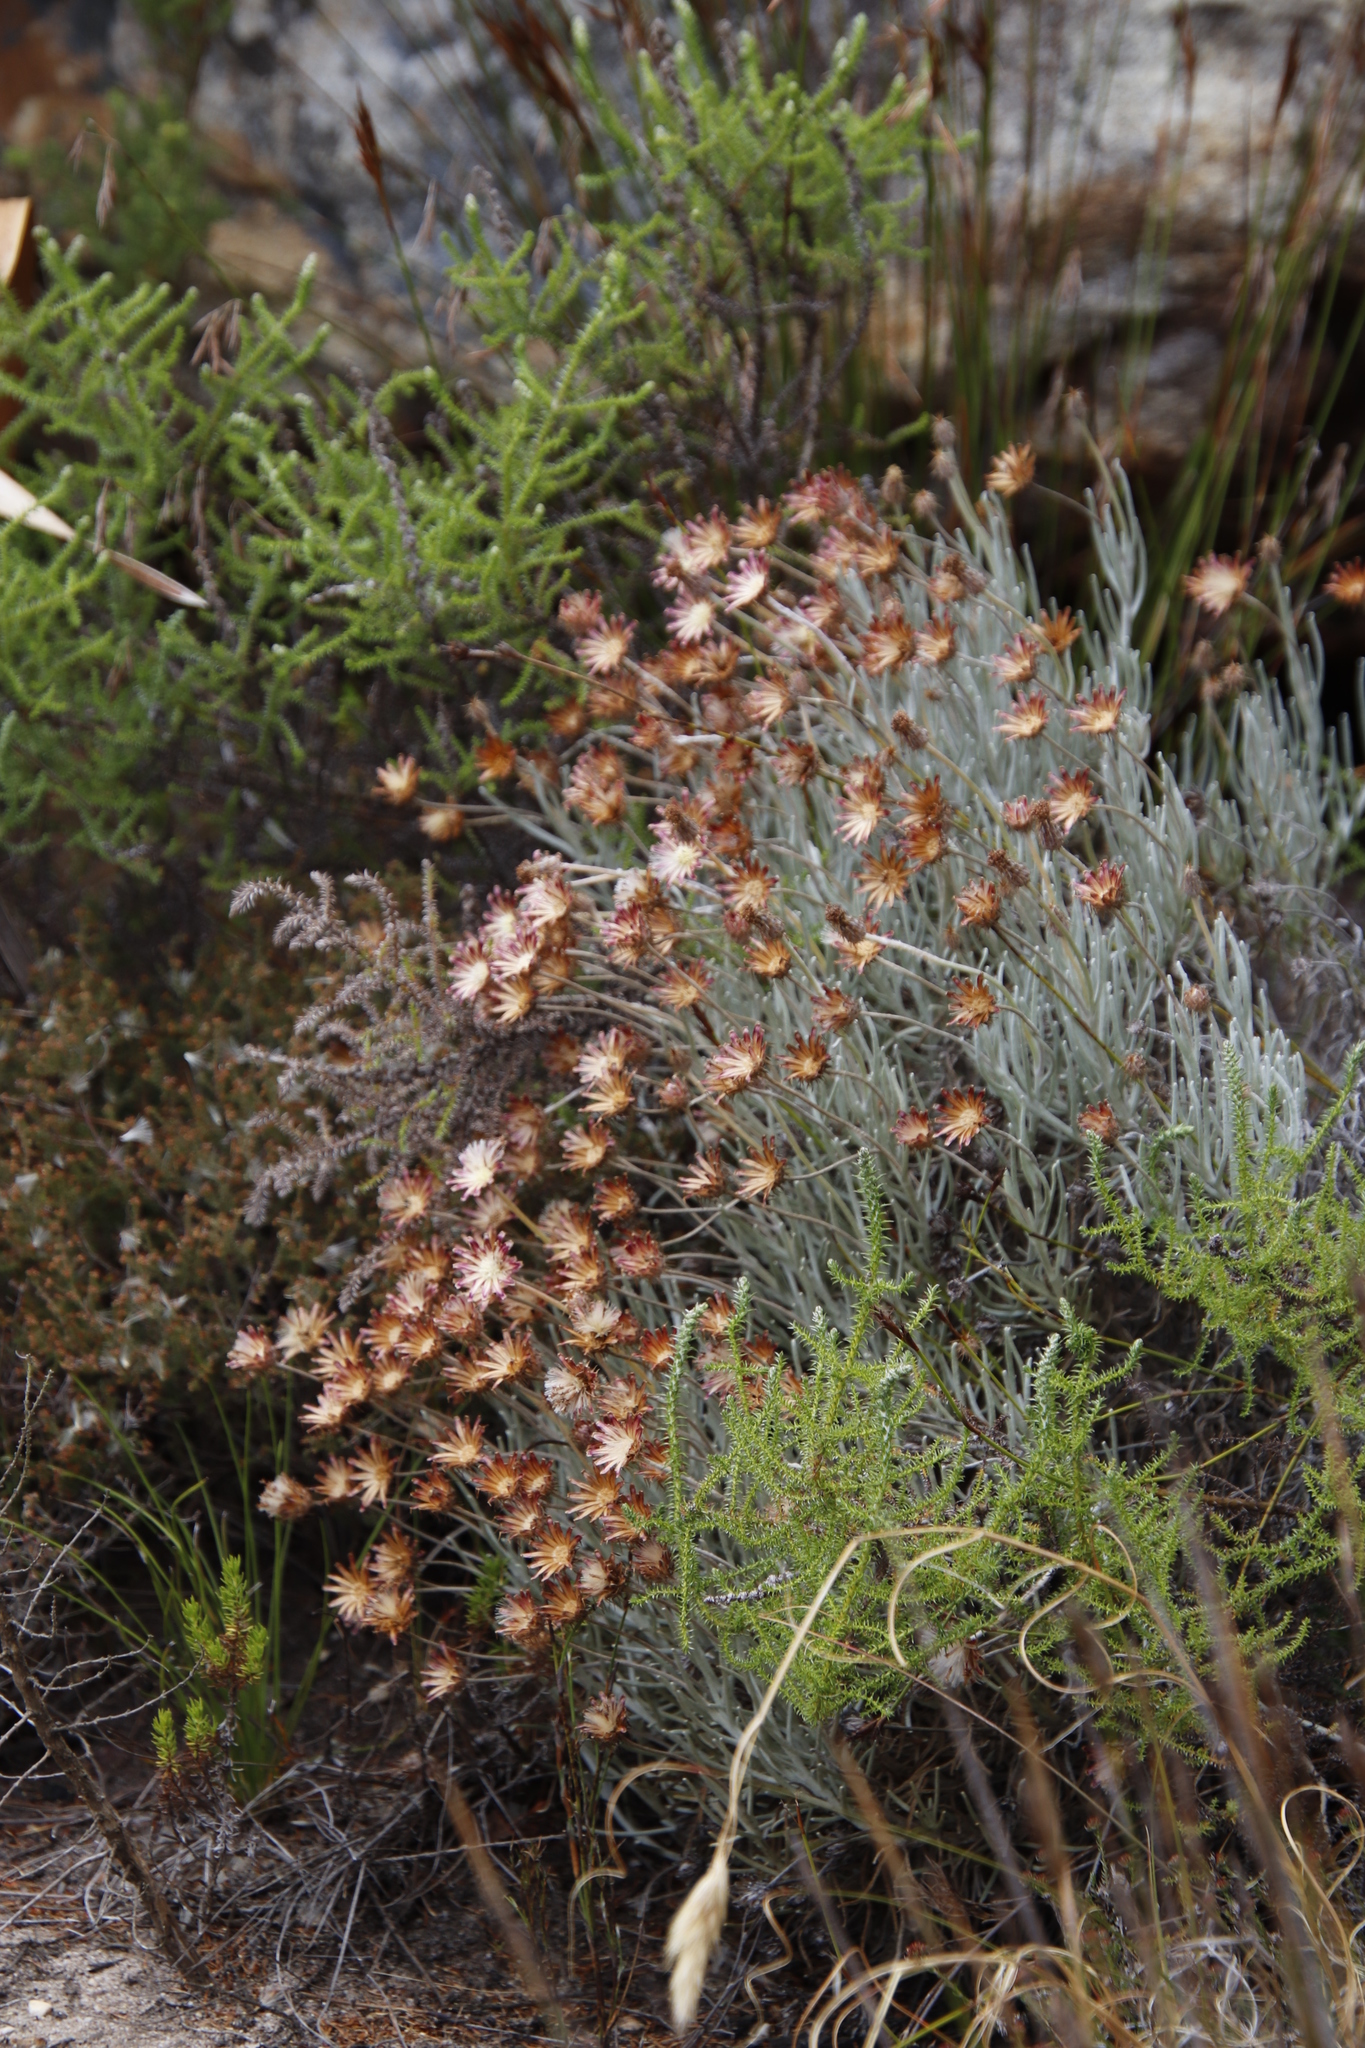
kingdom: Plantae
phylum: Tracheophyta
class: Magnoliopsida
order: Asterales
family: Asteraceae
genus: Syncarpha
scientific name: Syncarpha gnaphaloides
